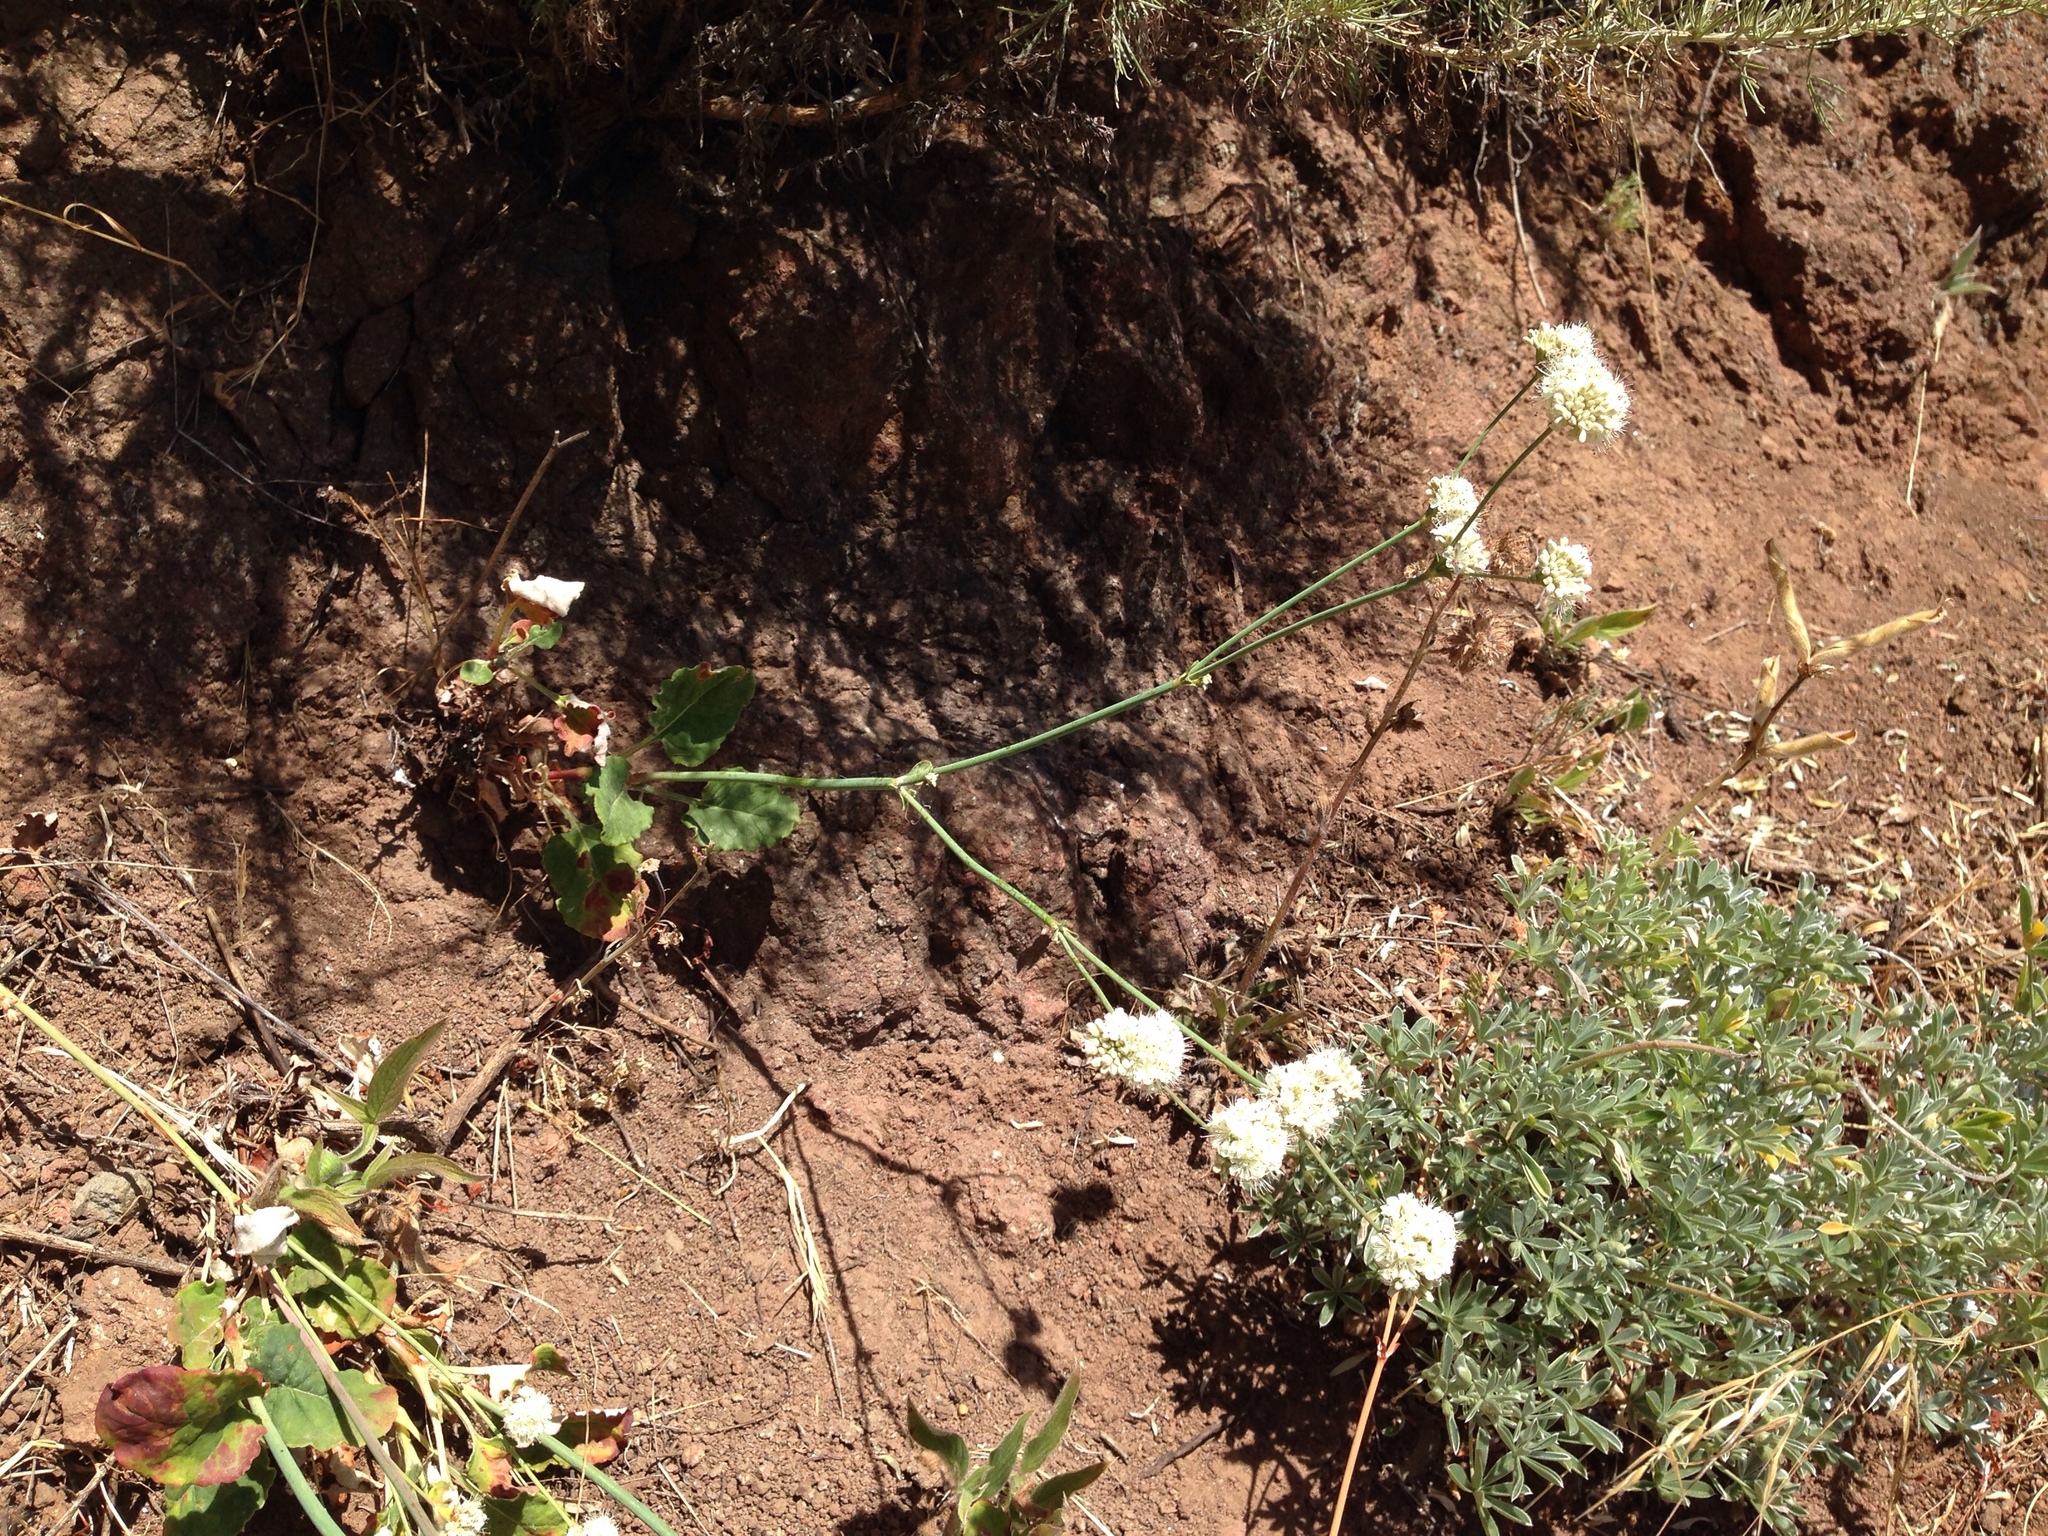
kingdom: Plantae
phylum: Tracheophyta
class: Magnoliopsida
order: Caryophyllales
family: Polygonaceae
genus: Eriogonum
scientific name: Eriogonum nudum
